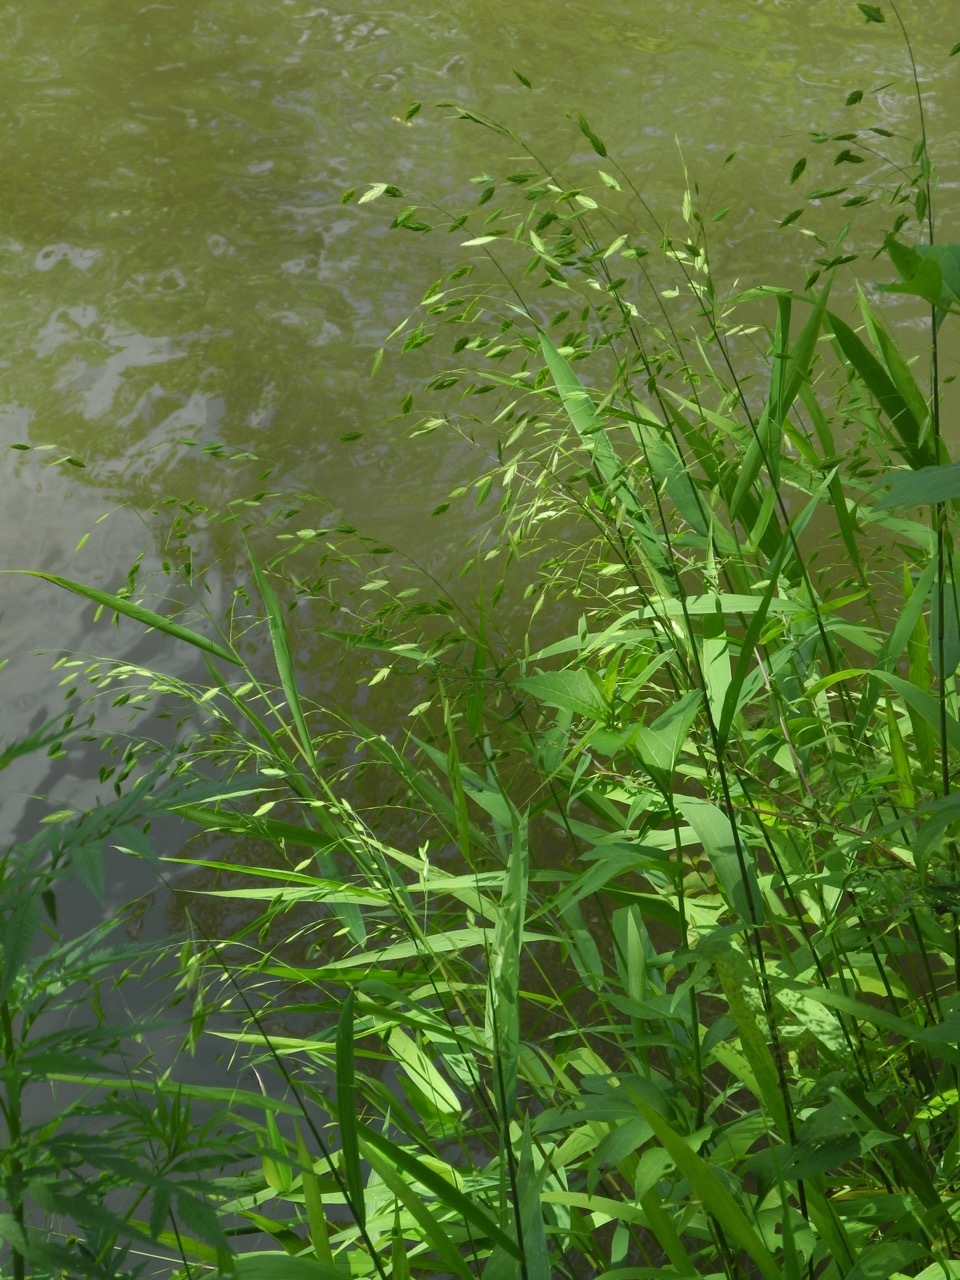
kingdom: Plantae
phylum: Tracheophyta
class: Liliopsida
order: Poales
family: Poaceae
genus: Chasmanthium
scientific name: Chasmanthium latifolium
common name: Broad-leaved chasmanthium
